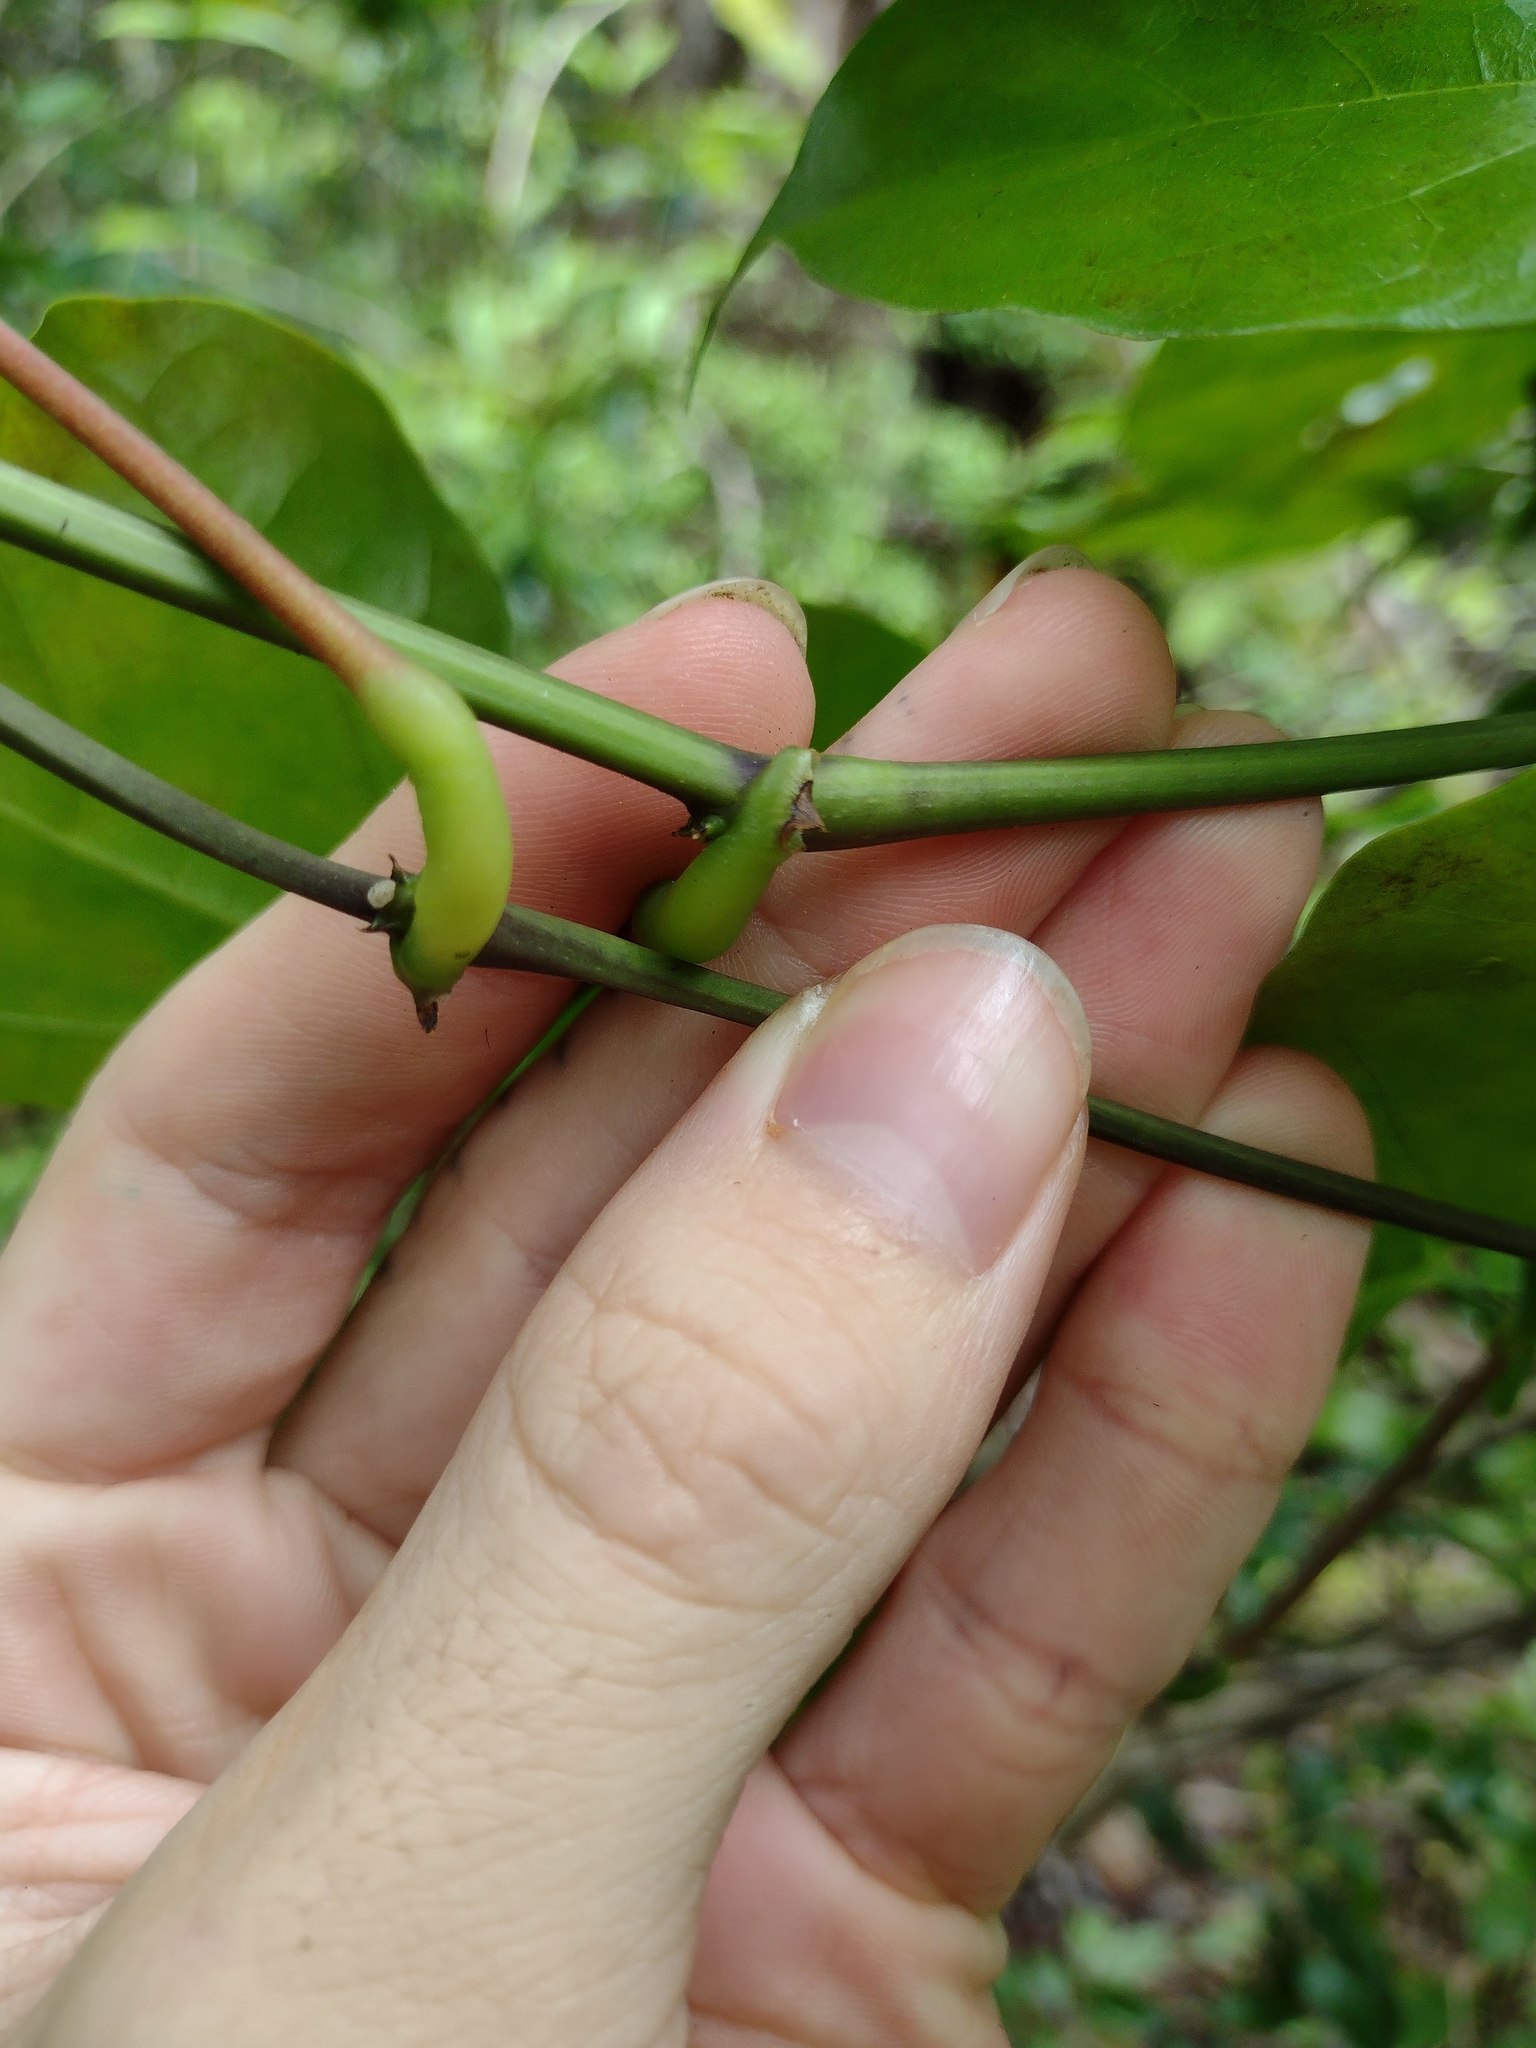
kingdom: Plantae
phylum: Tracheophyta
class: Magnoliopsida
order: Fabales
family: Fabaceae
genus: Strongylodon
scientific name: Strongylodon ruber
